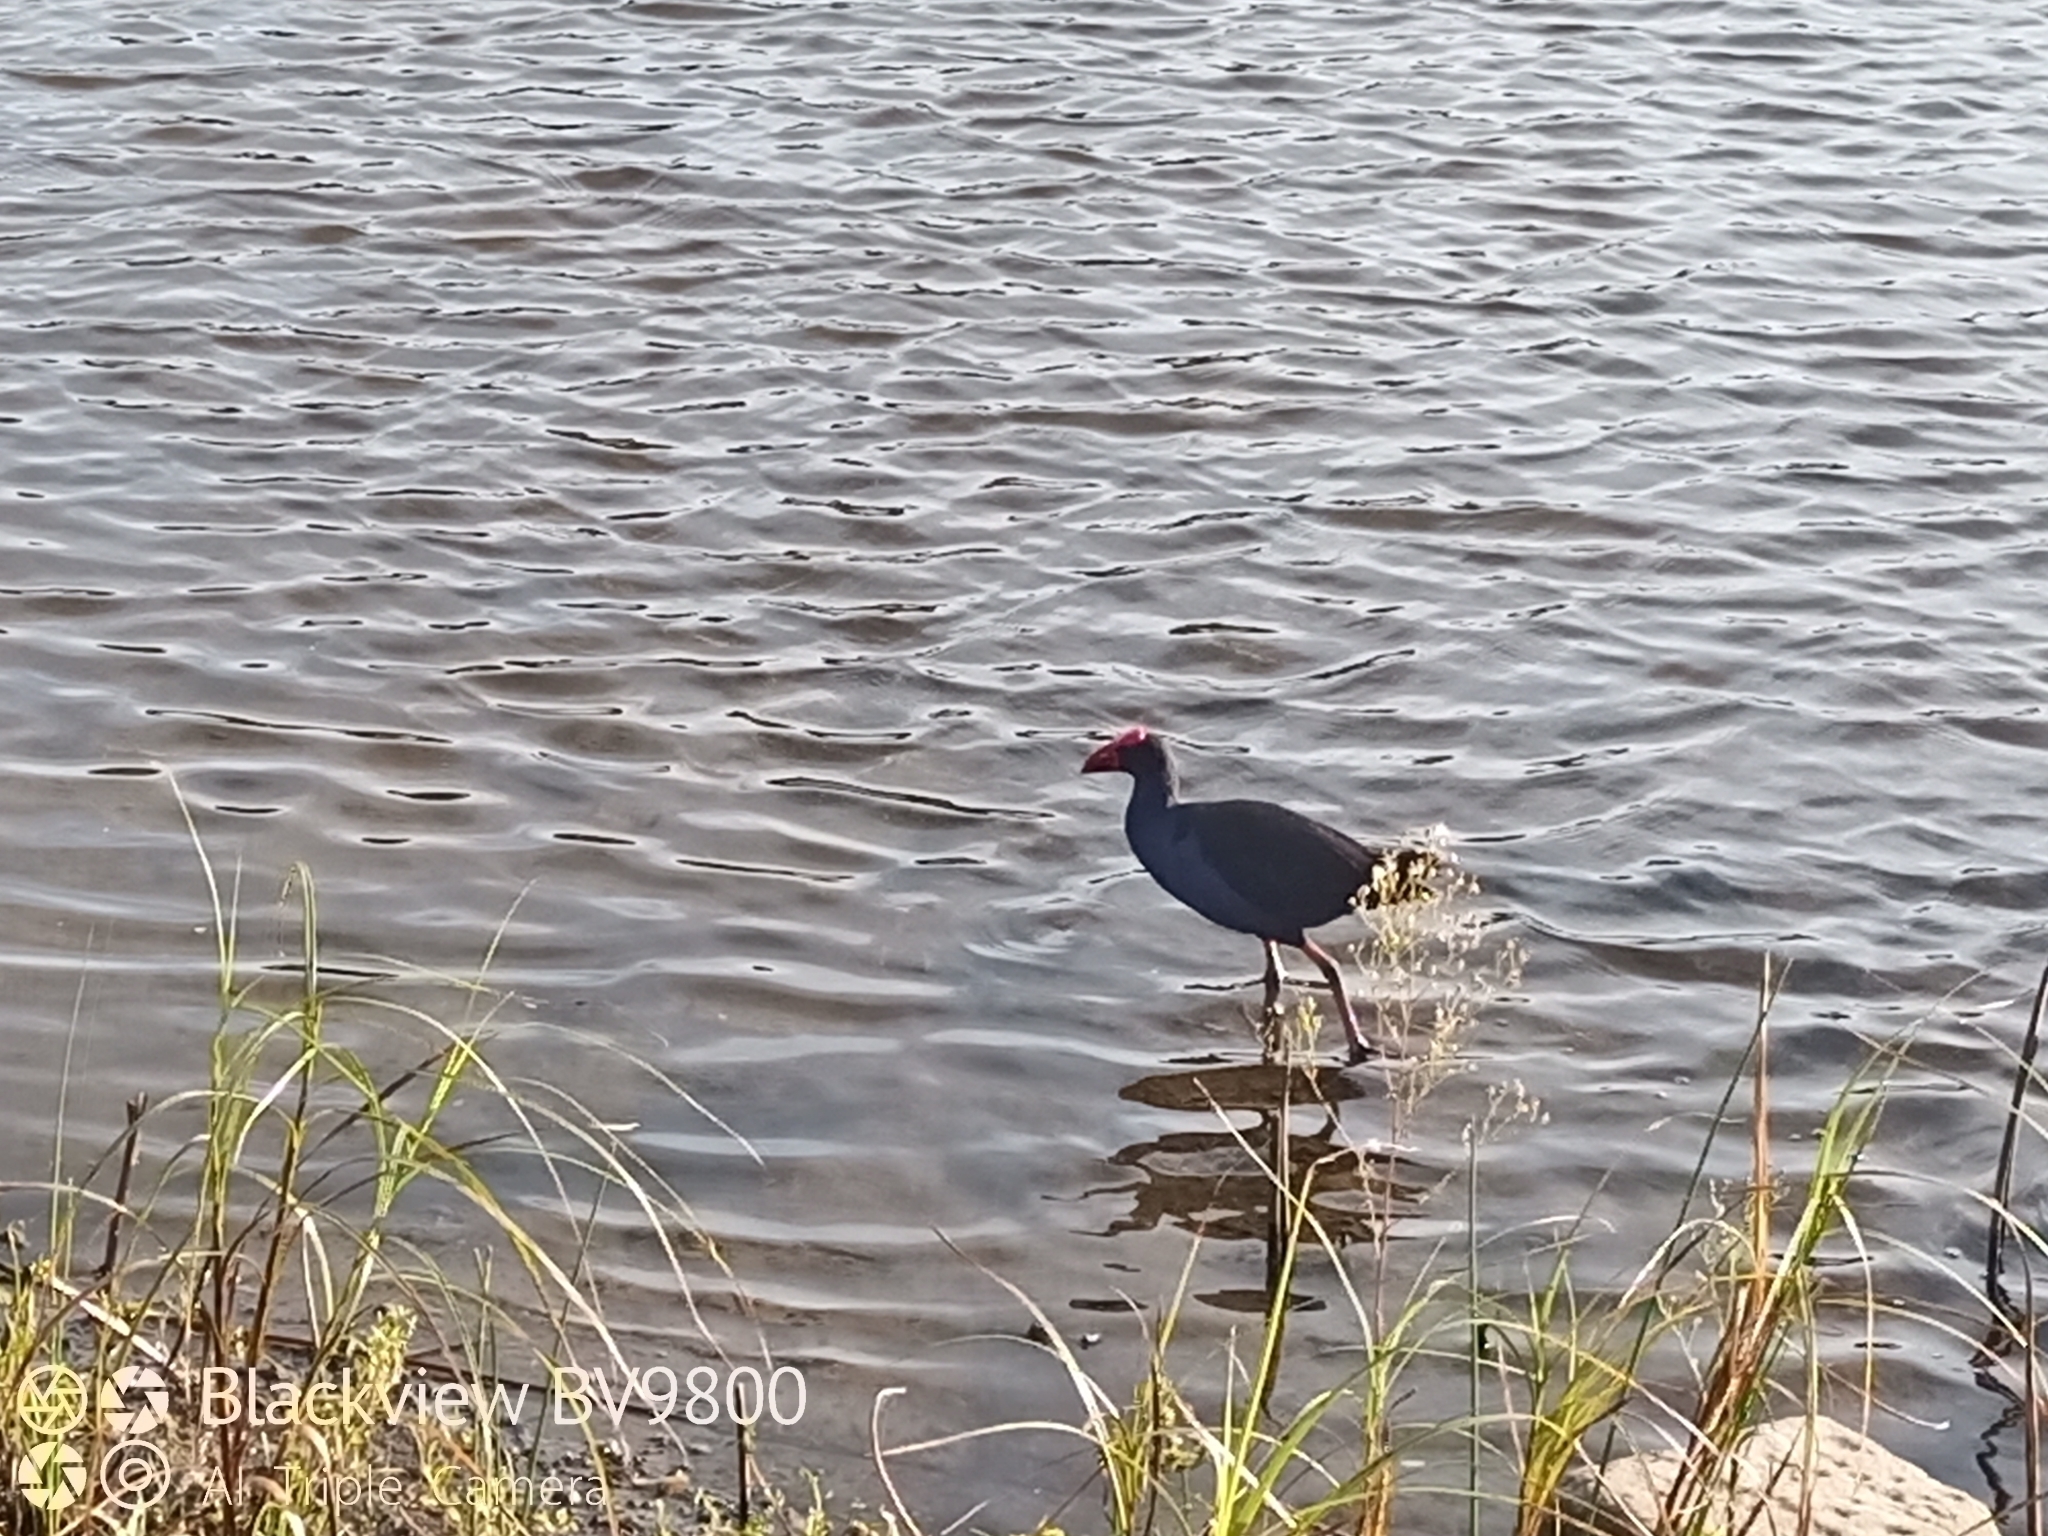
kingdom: Animalia
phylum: Chordata
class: Aves
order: Gruiformes
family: Rallidae
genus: Porphyrio
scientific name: Porphyrio melanotus
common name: Australasian swamphen
